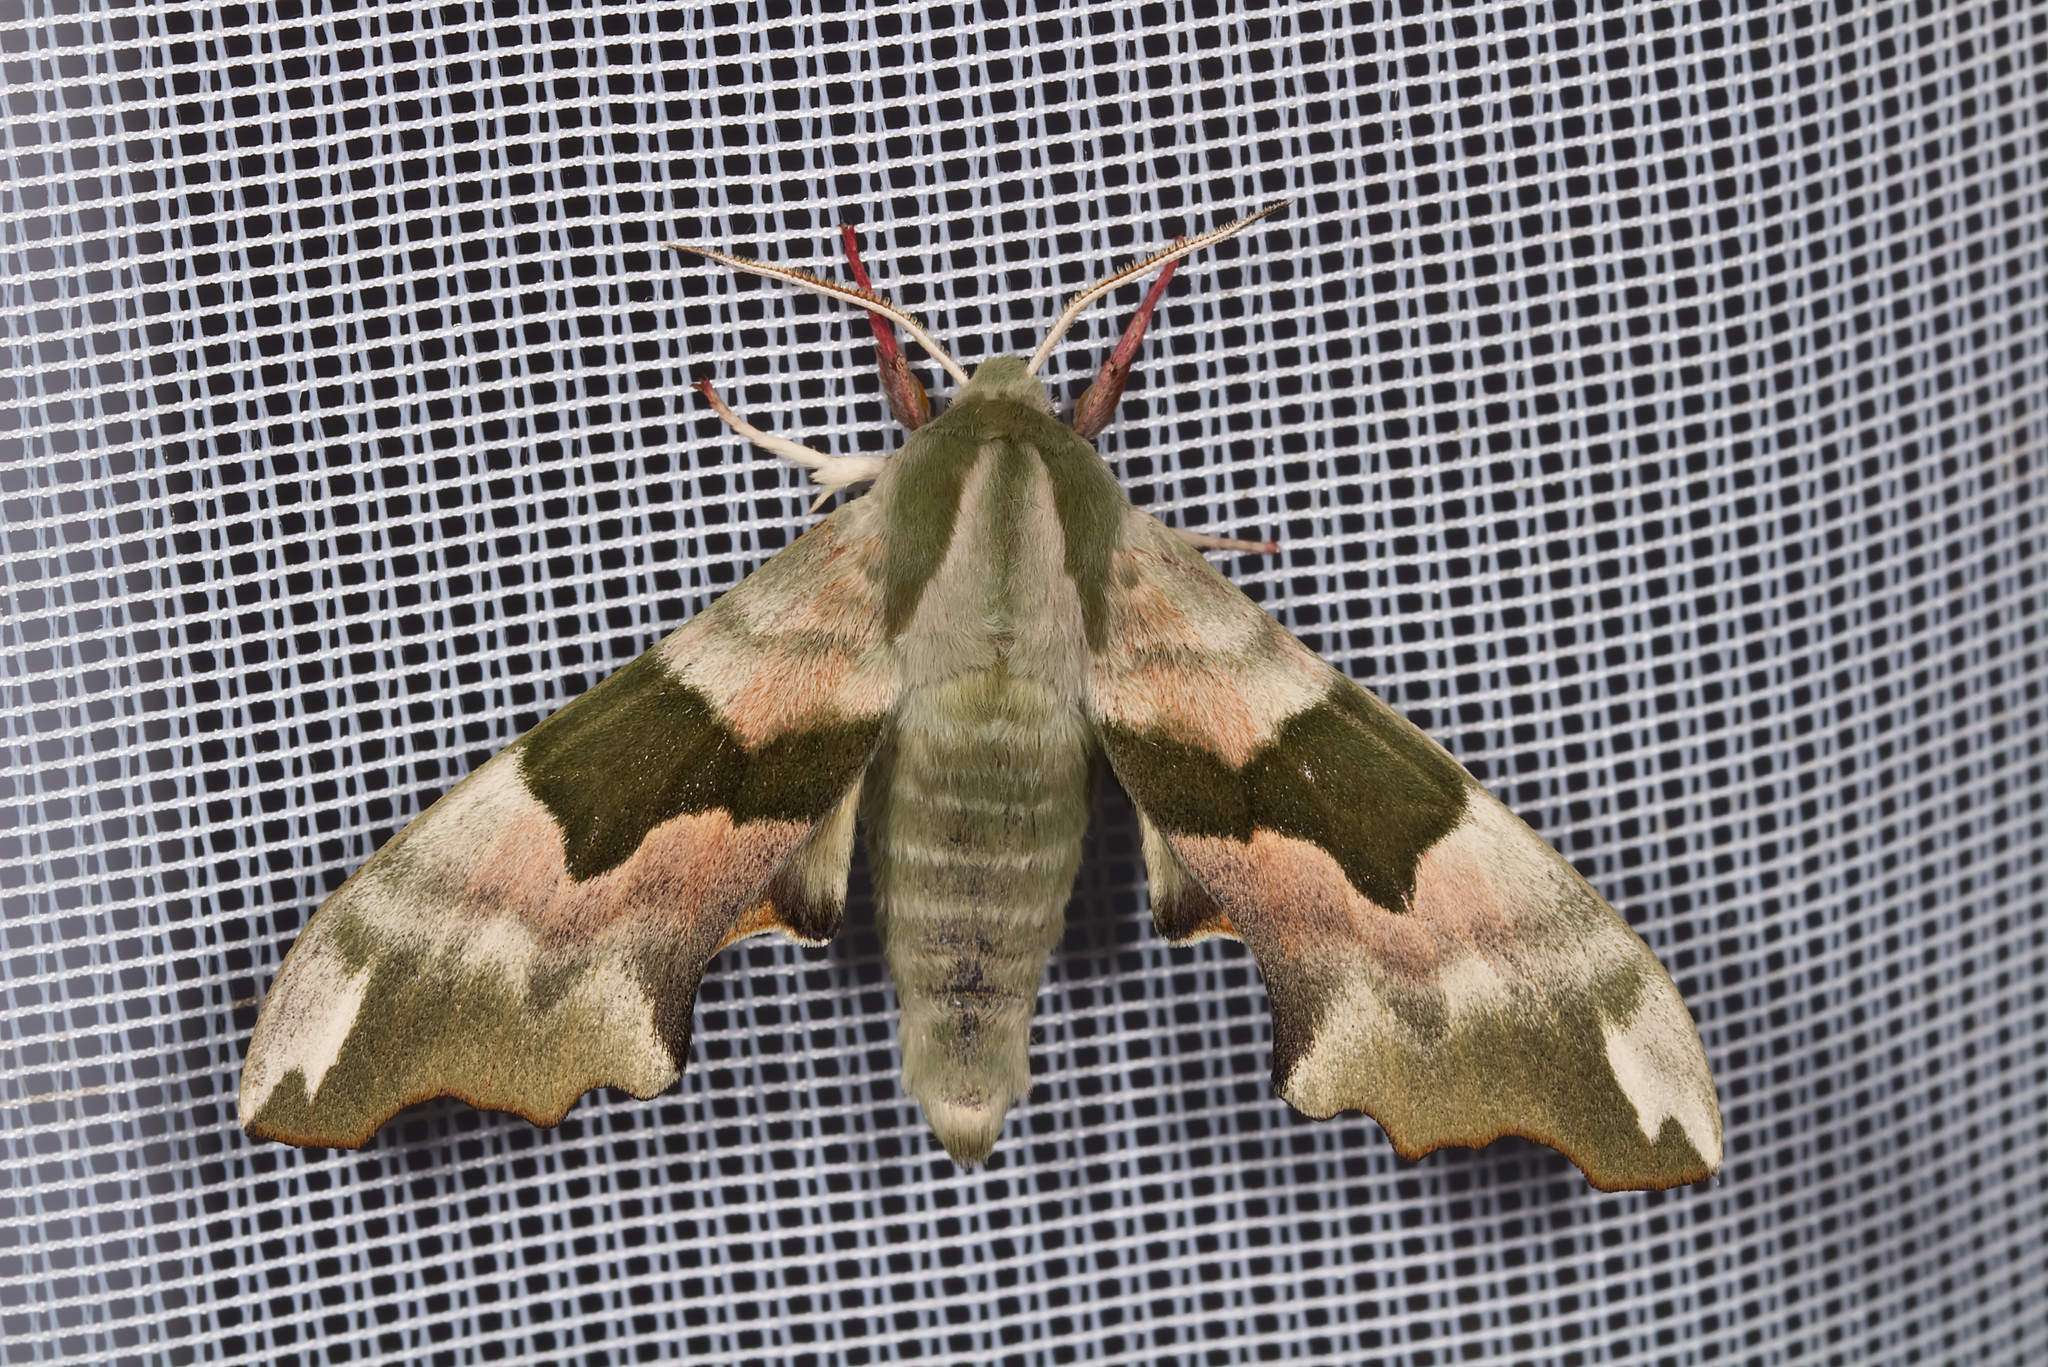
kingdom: Animalia
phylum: Arthropoda
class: Insecta
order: Lepidoptera
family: Sphingidae
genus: Mimas
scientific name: Mimas tiliae
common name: Lime hawk-moth
